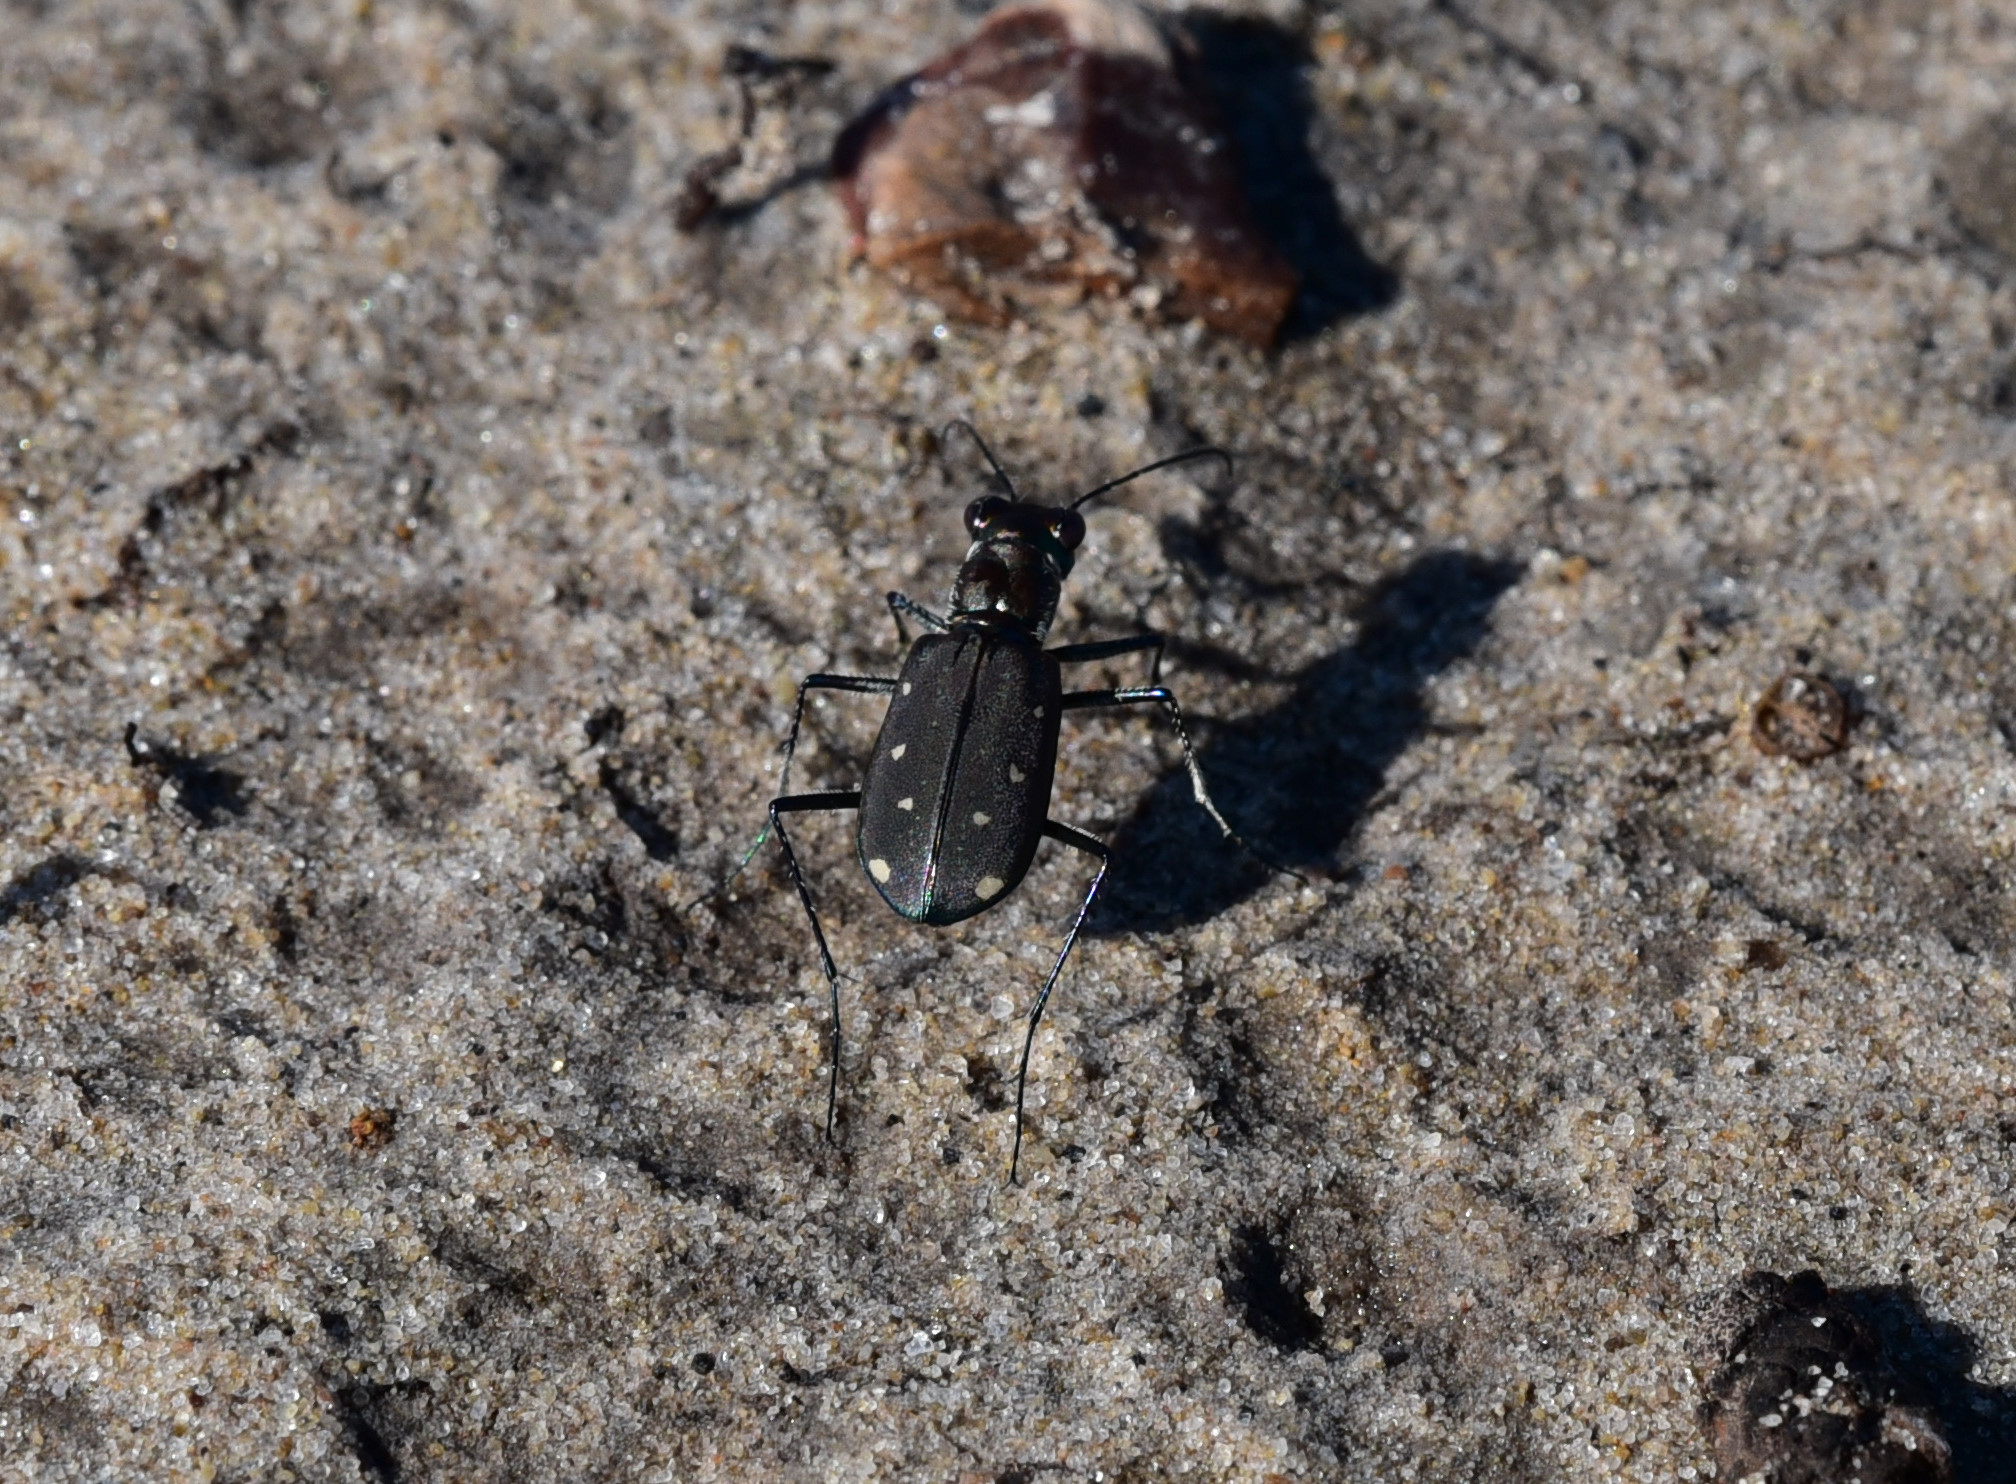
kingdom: Animalia
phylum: Arthropoda
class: Insecta
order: Coleoptera
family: Carabidae
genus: Cicindela
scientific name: Cicindela ocellata
